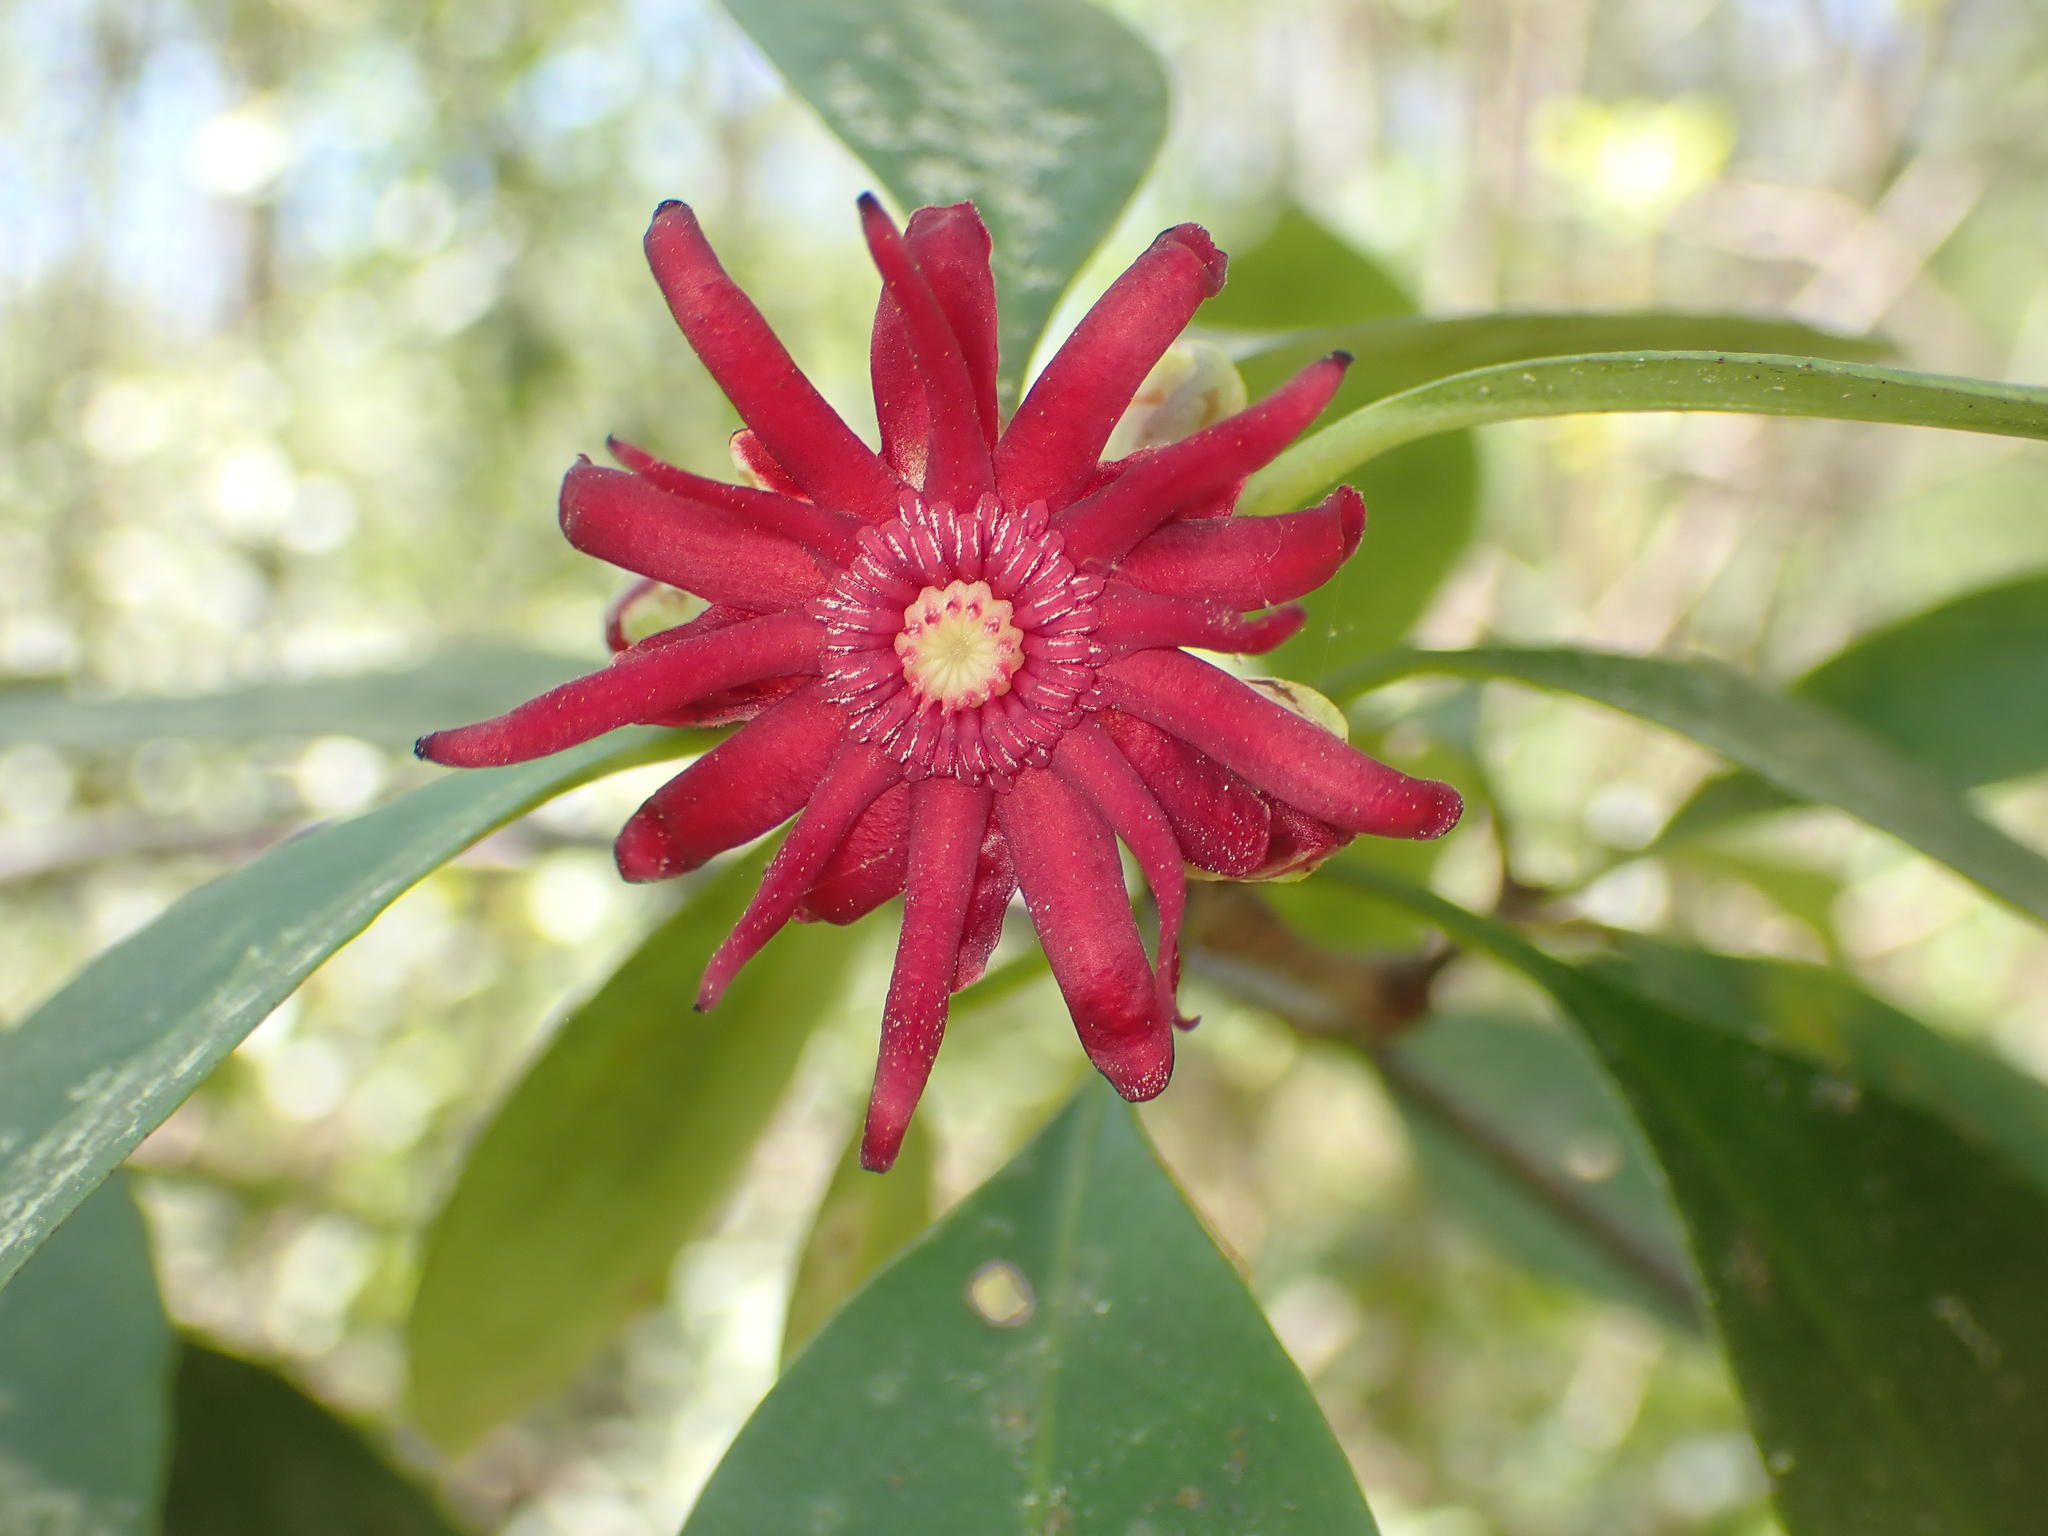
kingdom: Plantae
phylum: Tracheophyta
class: Magnoliopsida
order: Austrobaileyales
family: Schisandraceae
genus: Illicium
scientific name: Illicium floridanum
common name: Florida anisetree
